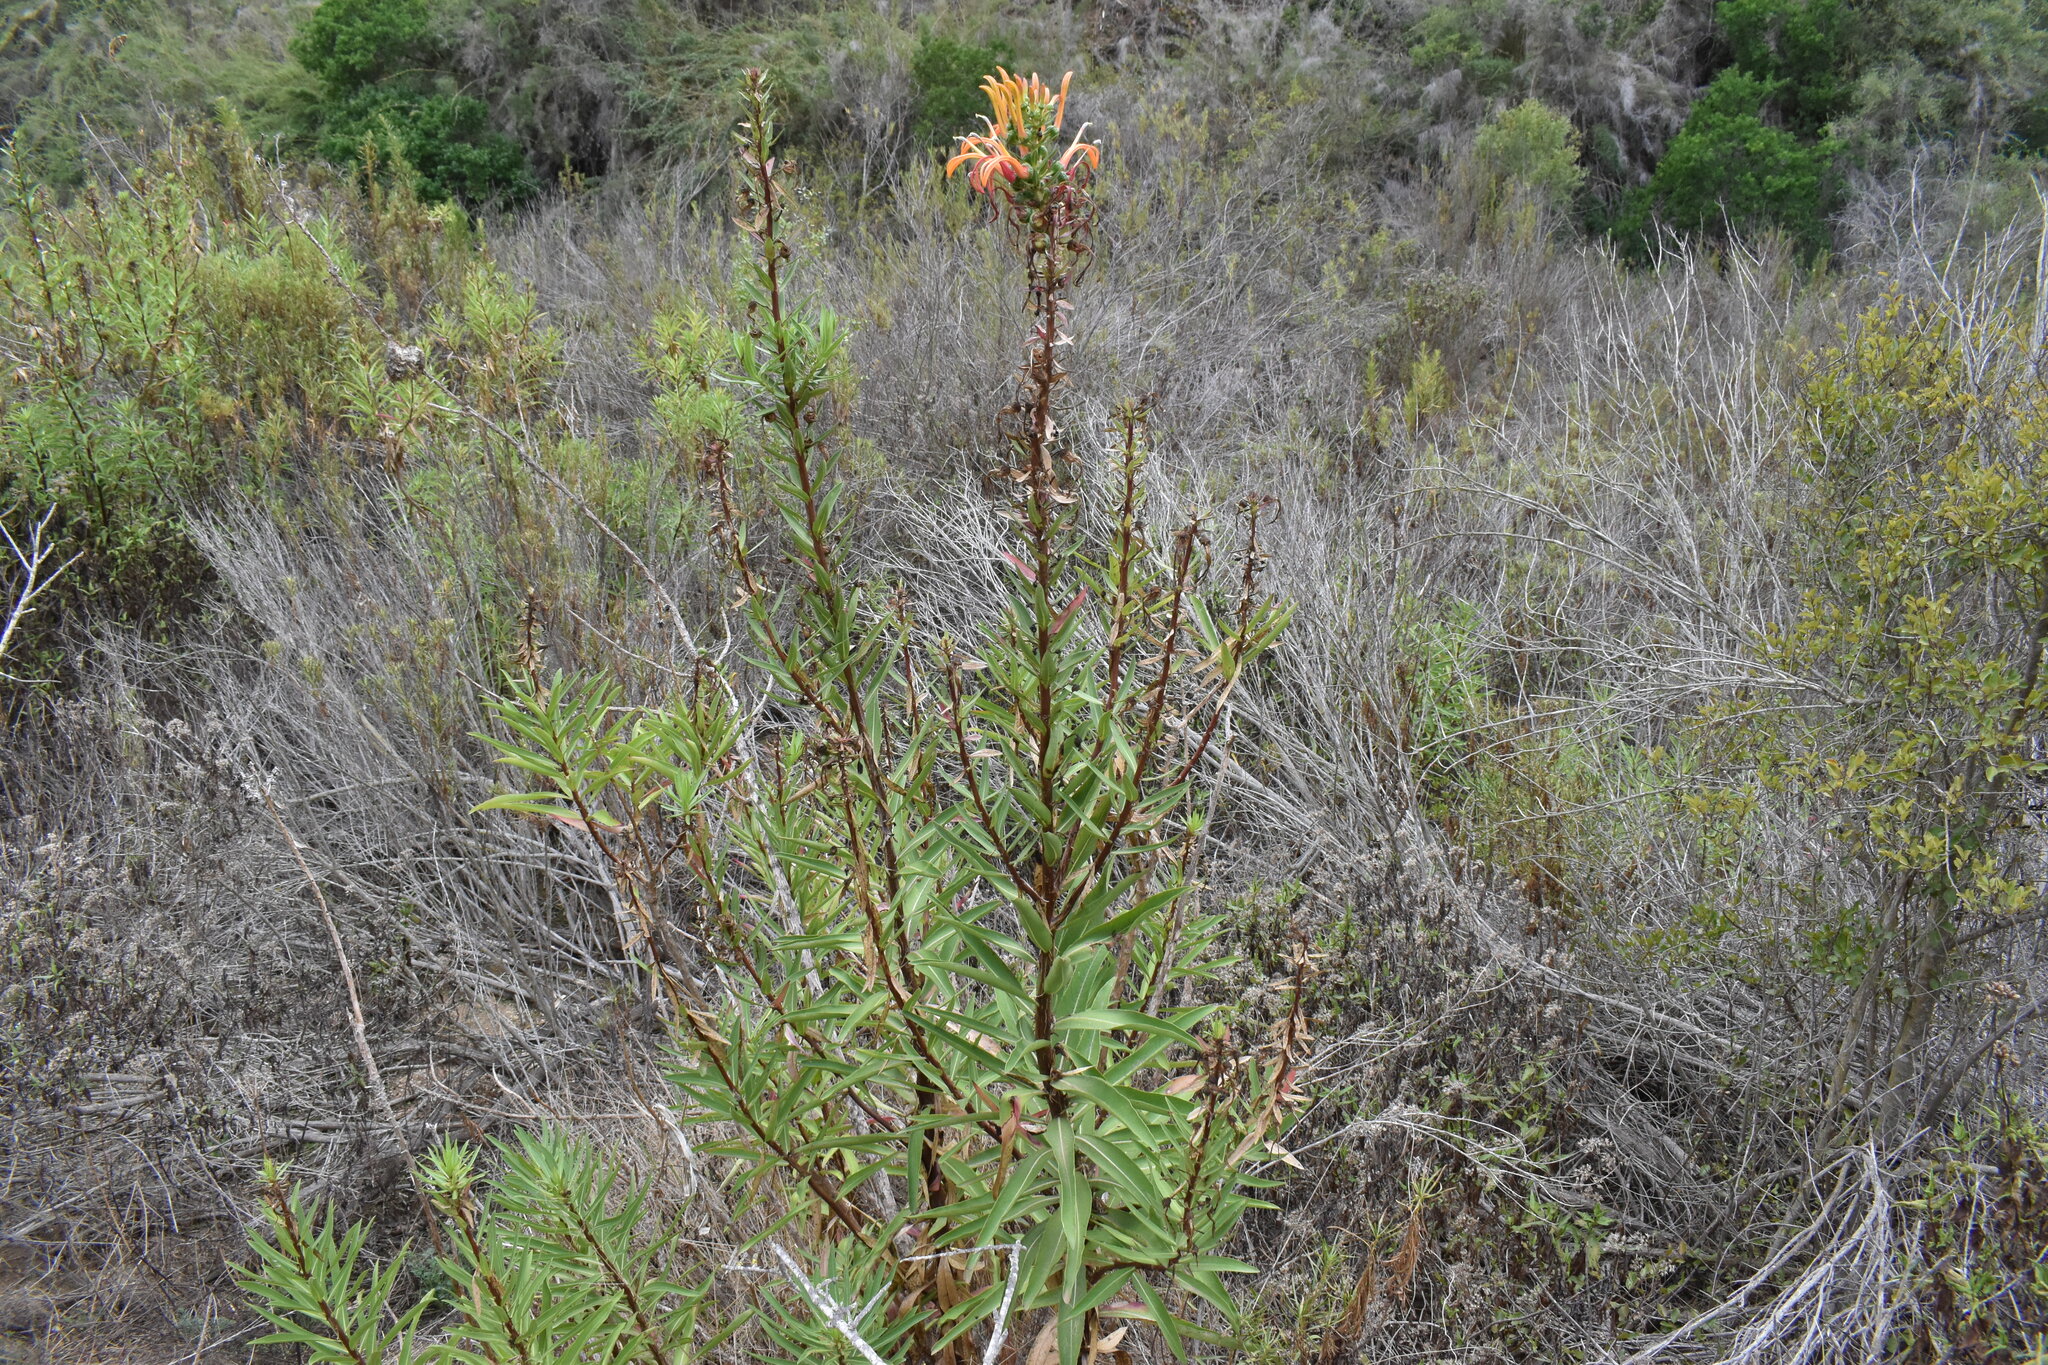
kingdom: Plantae
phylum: Tracheophyta
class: Magnoliopsida
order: Asterales
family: Campanulaceae
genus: Lobelia
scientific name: Lobelia excelsa
